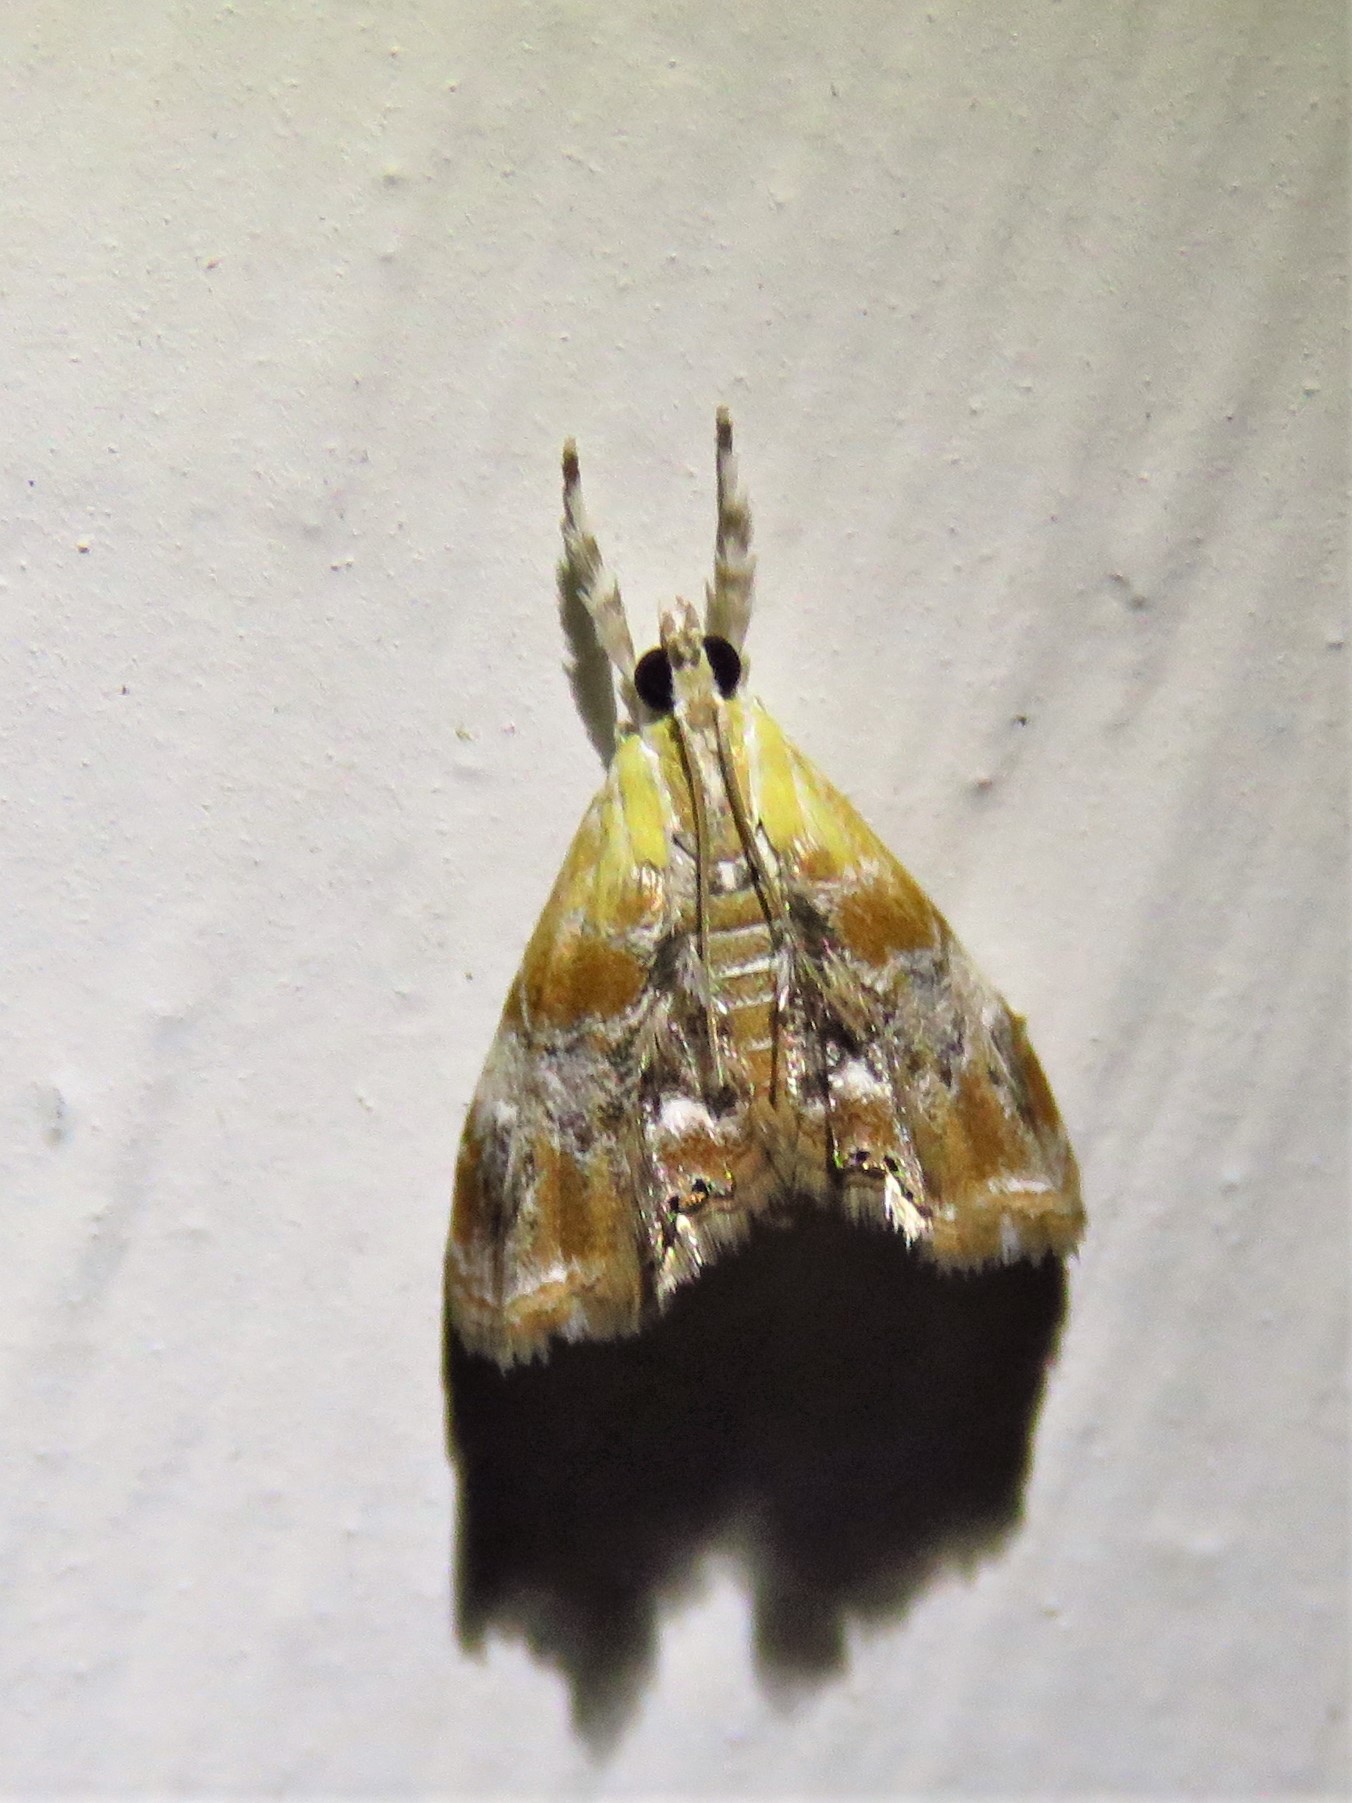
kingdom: Animalia
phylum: Arthropoda
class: Insecta
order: Lepidoptera
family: Crambidae
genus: Dicymolomia
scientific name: Dicymolomia julianalis
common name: Julia's dicymolomia moth
